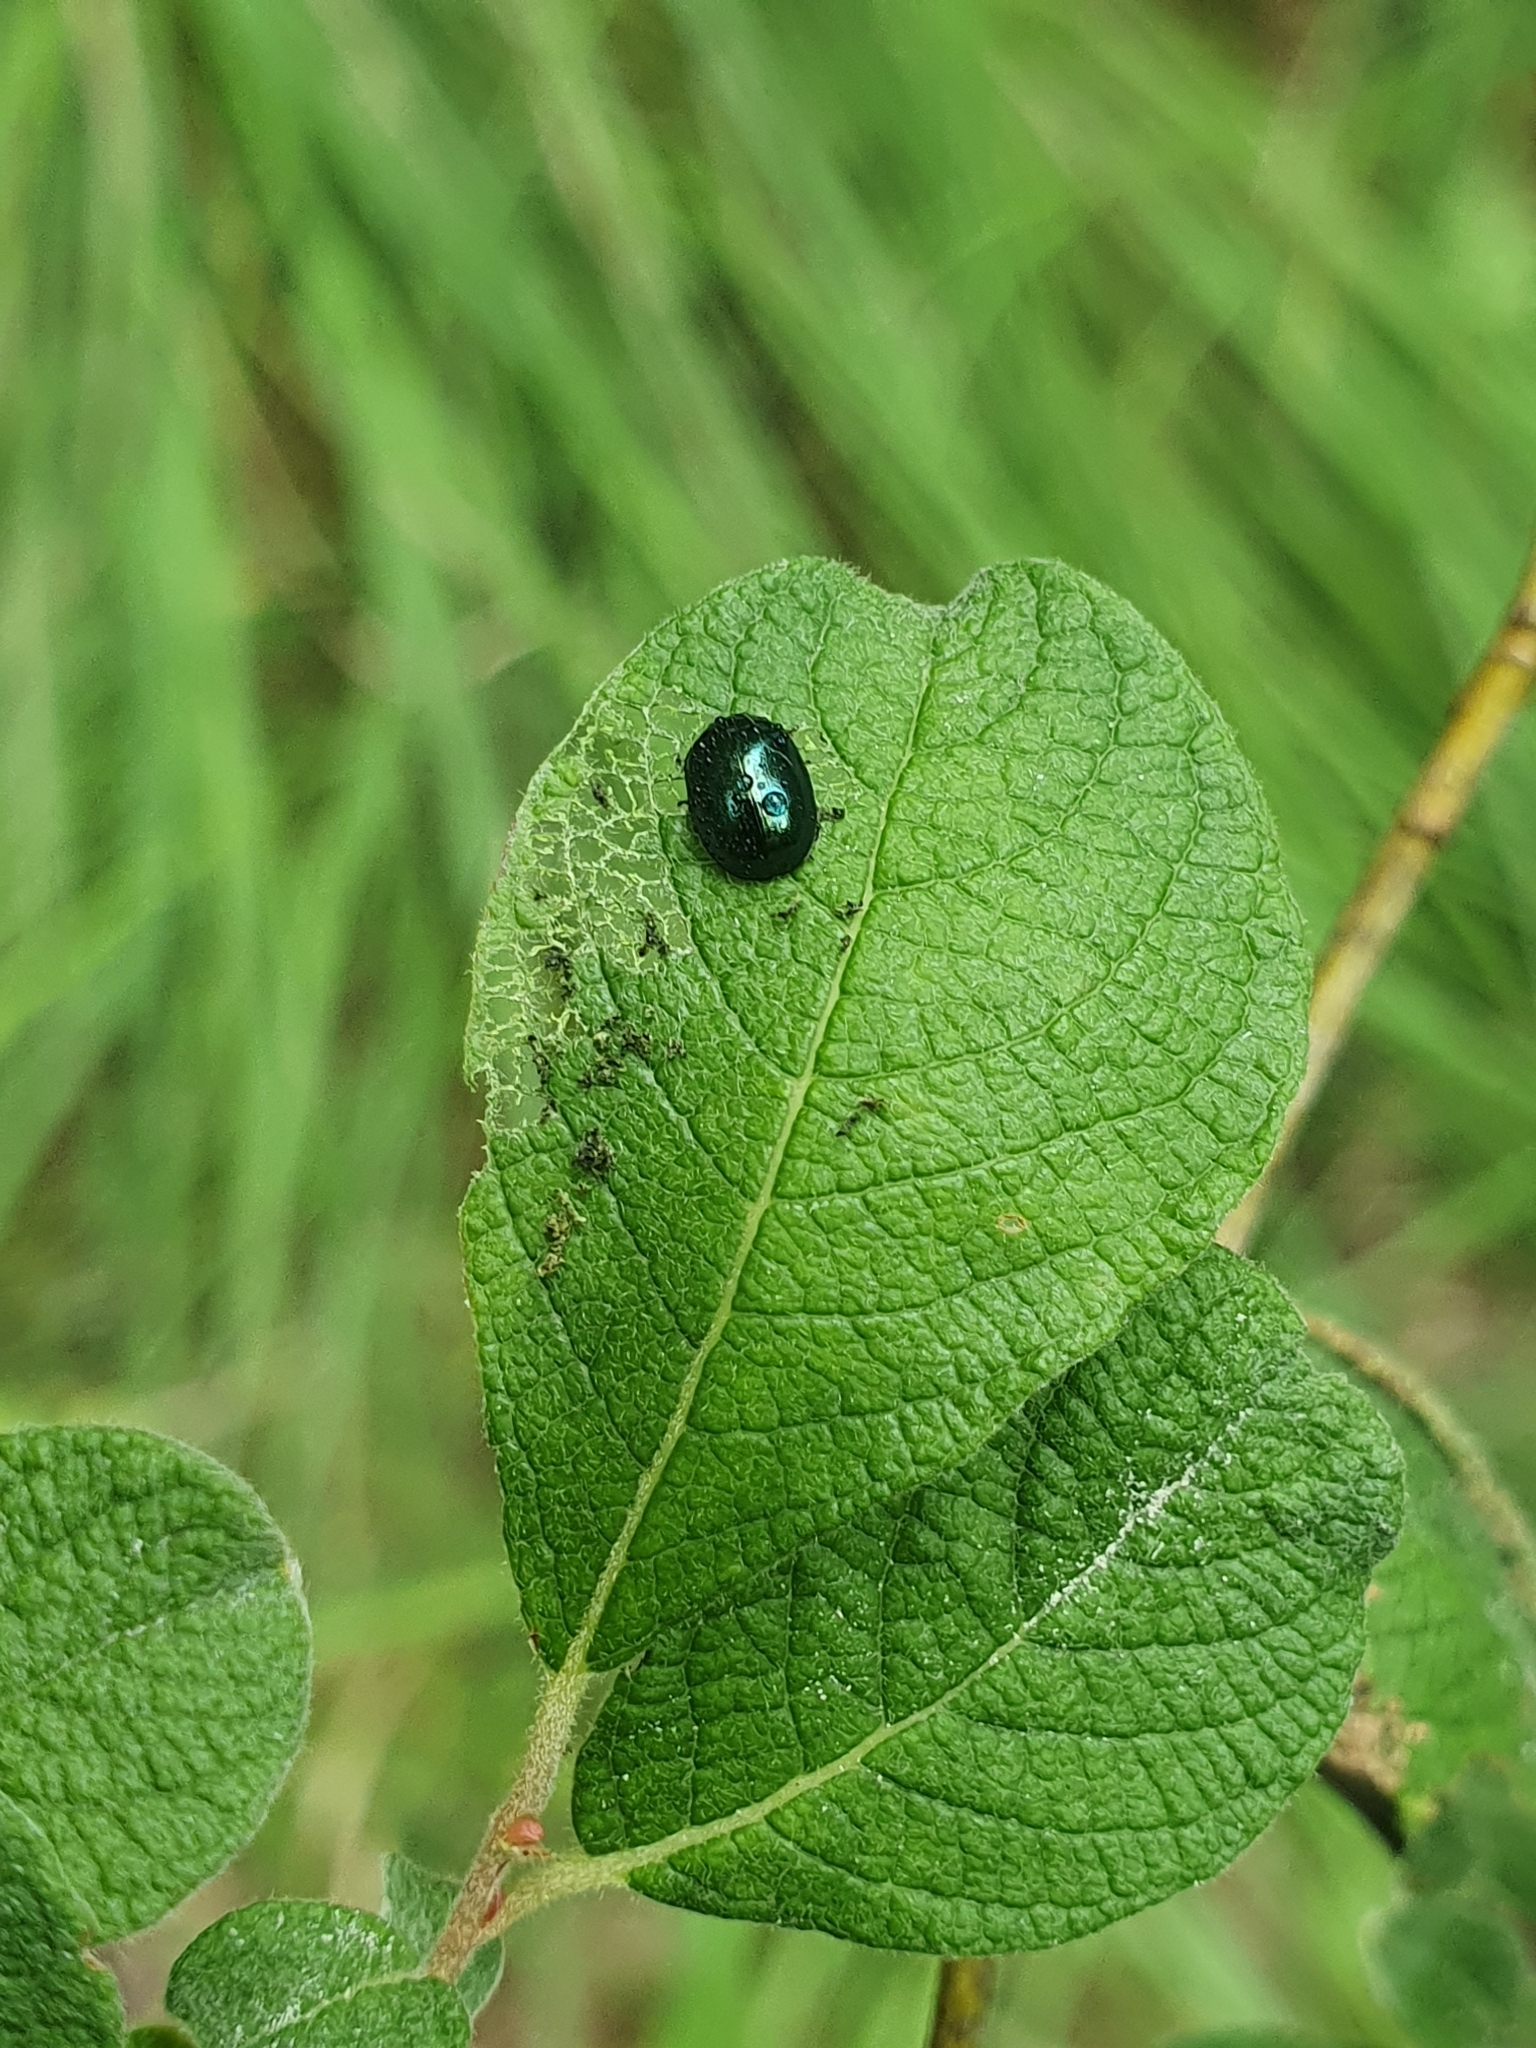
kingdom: Animalia
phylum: Arthropoda
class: Insecta
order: Coleoptera
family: Chrysomelidae
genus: Plagiodera
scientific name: Plagiodera versicolora
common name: Imported willow leaf beetle
